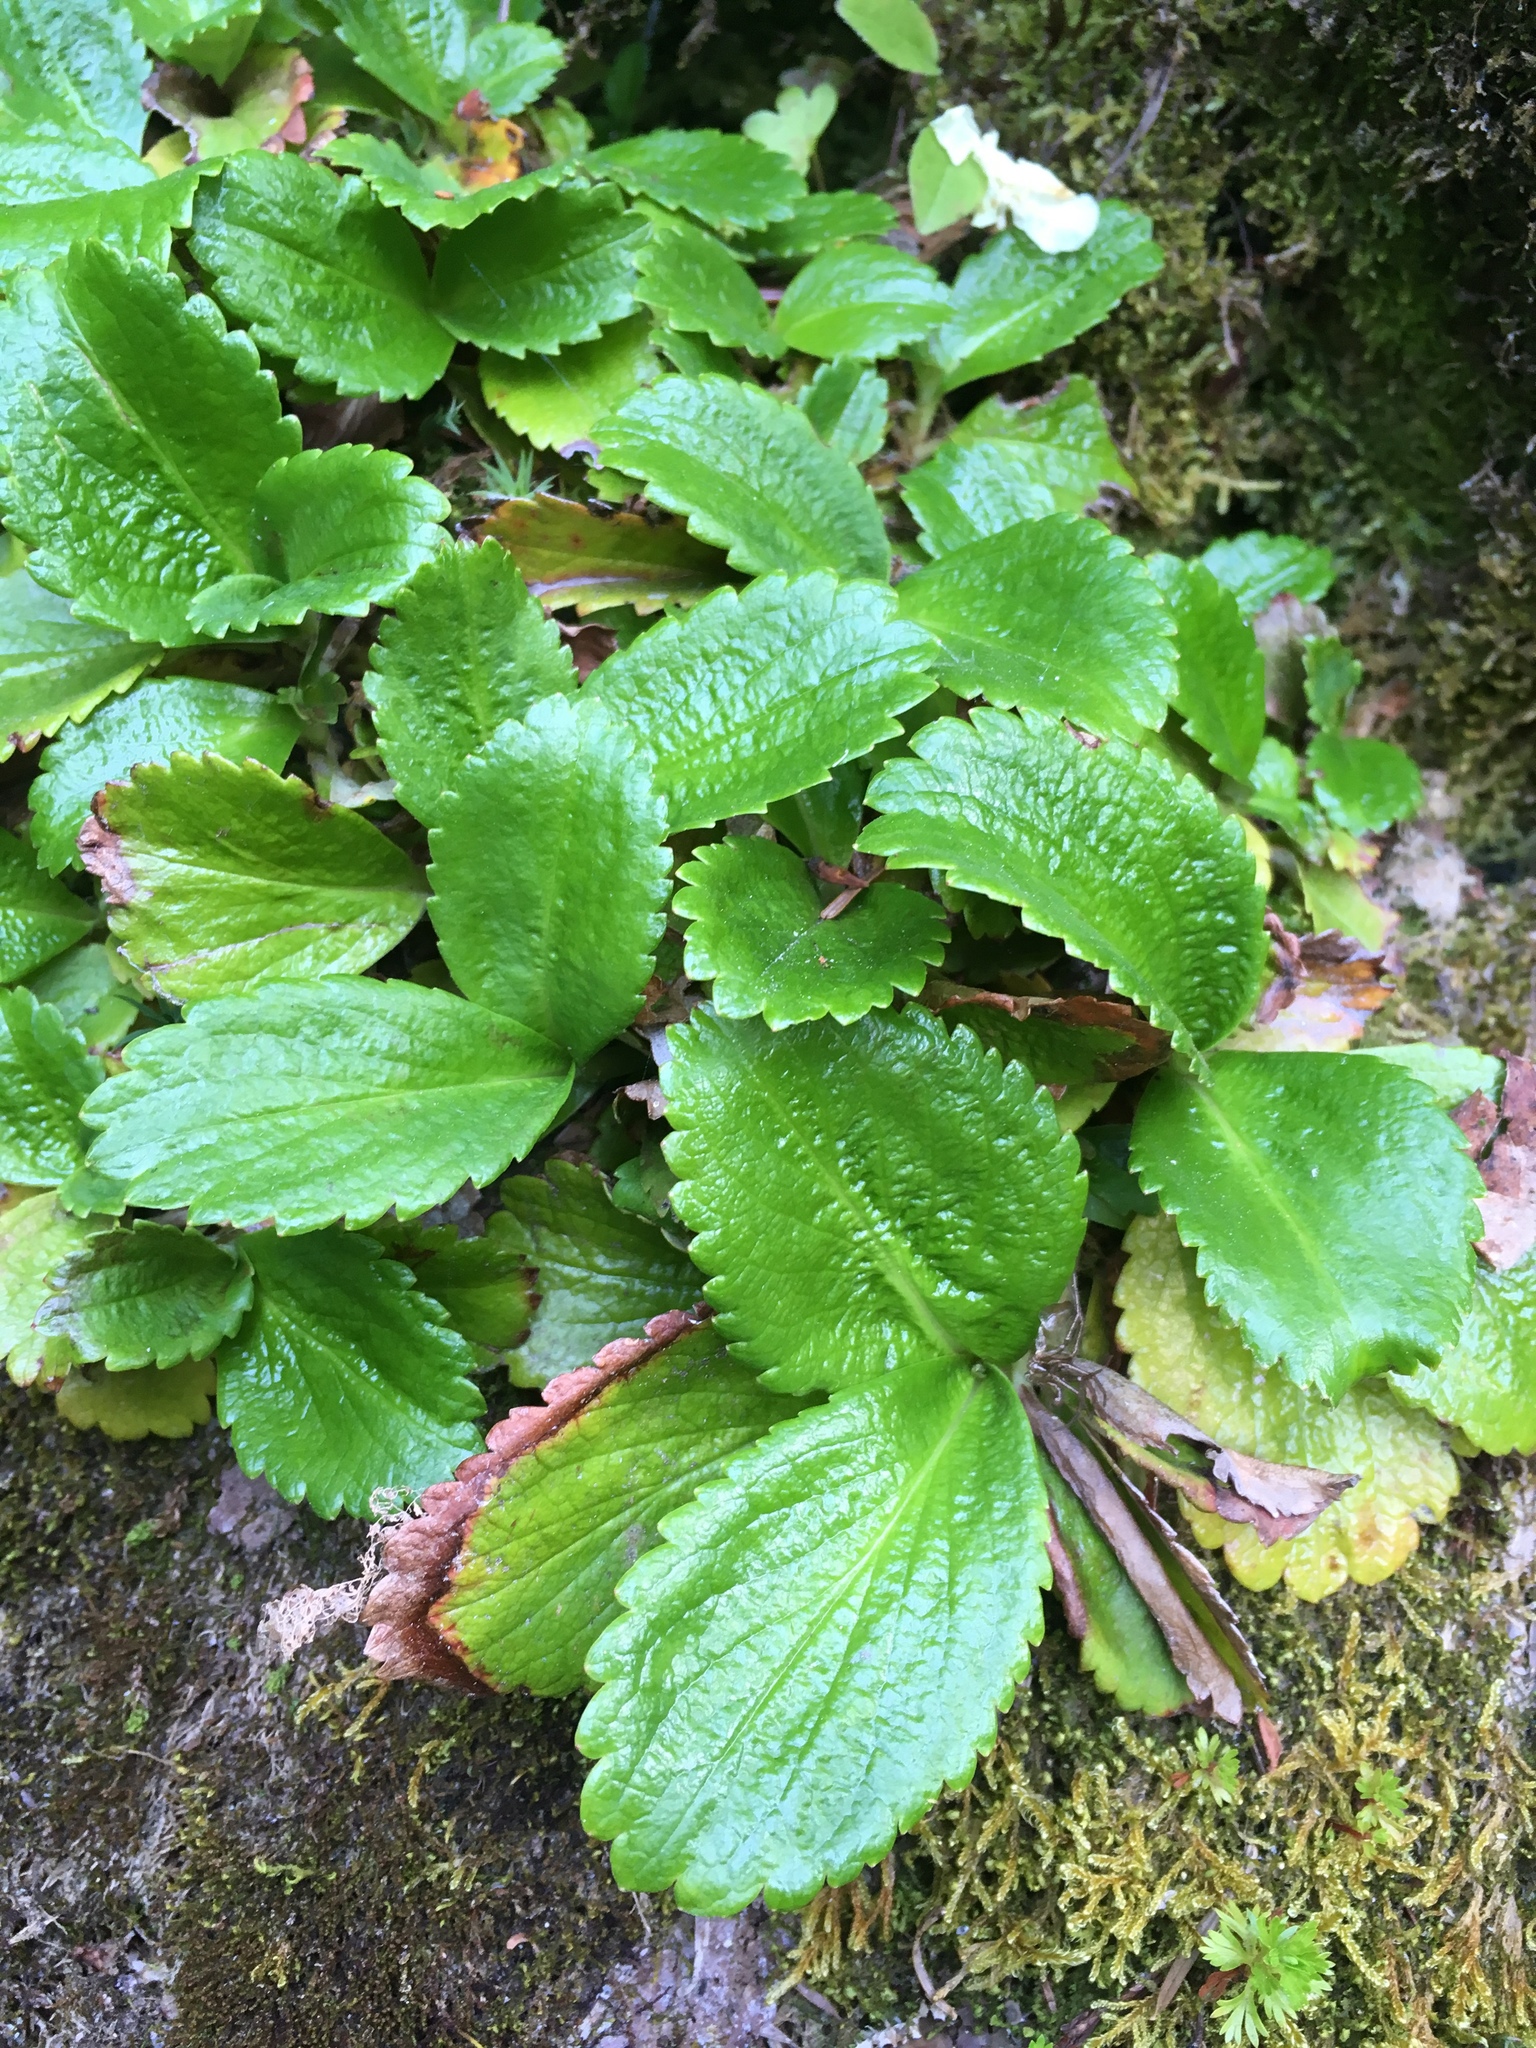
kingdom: Plantae
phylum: Tracheophyta
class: Magnoliopsida
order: Saxifragales
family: Saxifragaceae
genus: Leptarrhena
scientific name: Leptarrhena pyrolifolia
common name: Leatherleaf-saxifrage
